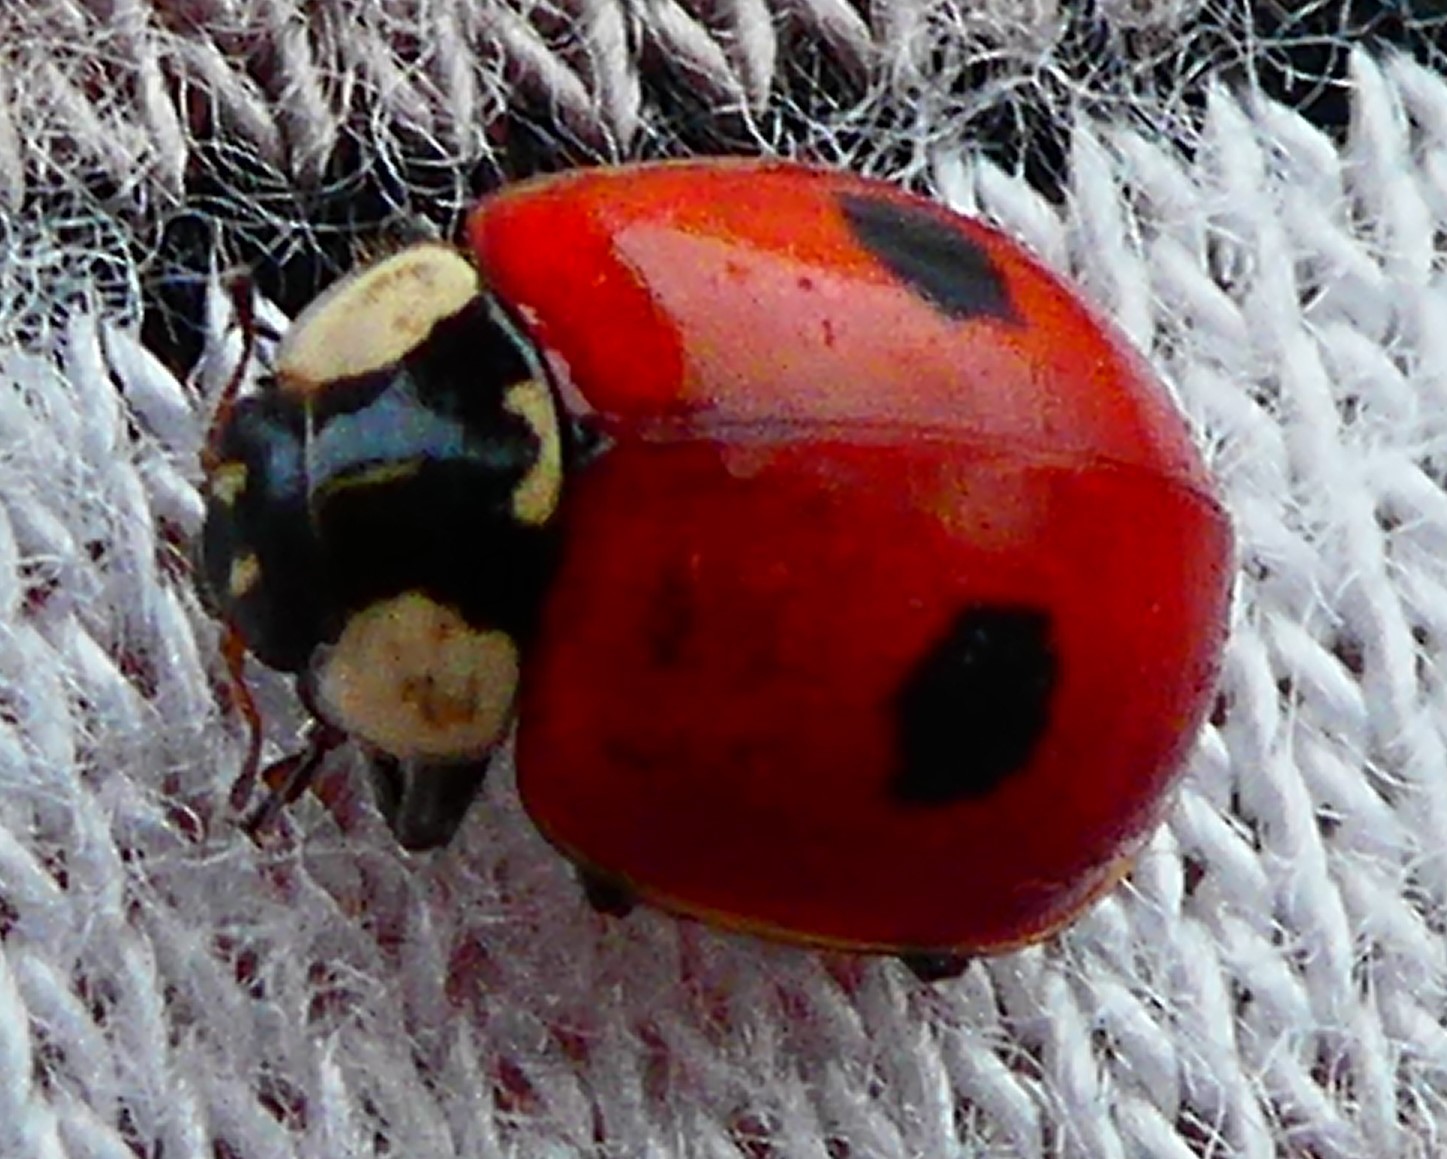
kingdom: Animalia
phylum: Arthropoda
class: Insecta
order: Coleoptera
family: Coccinellidae
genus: Adalia
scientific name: Adalia bipunctata
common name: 2-spot ladybird
